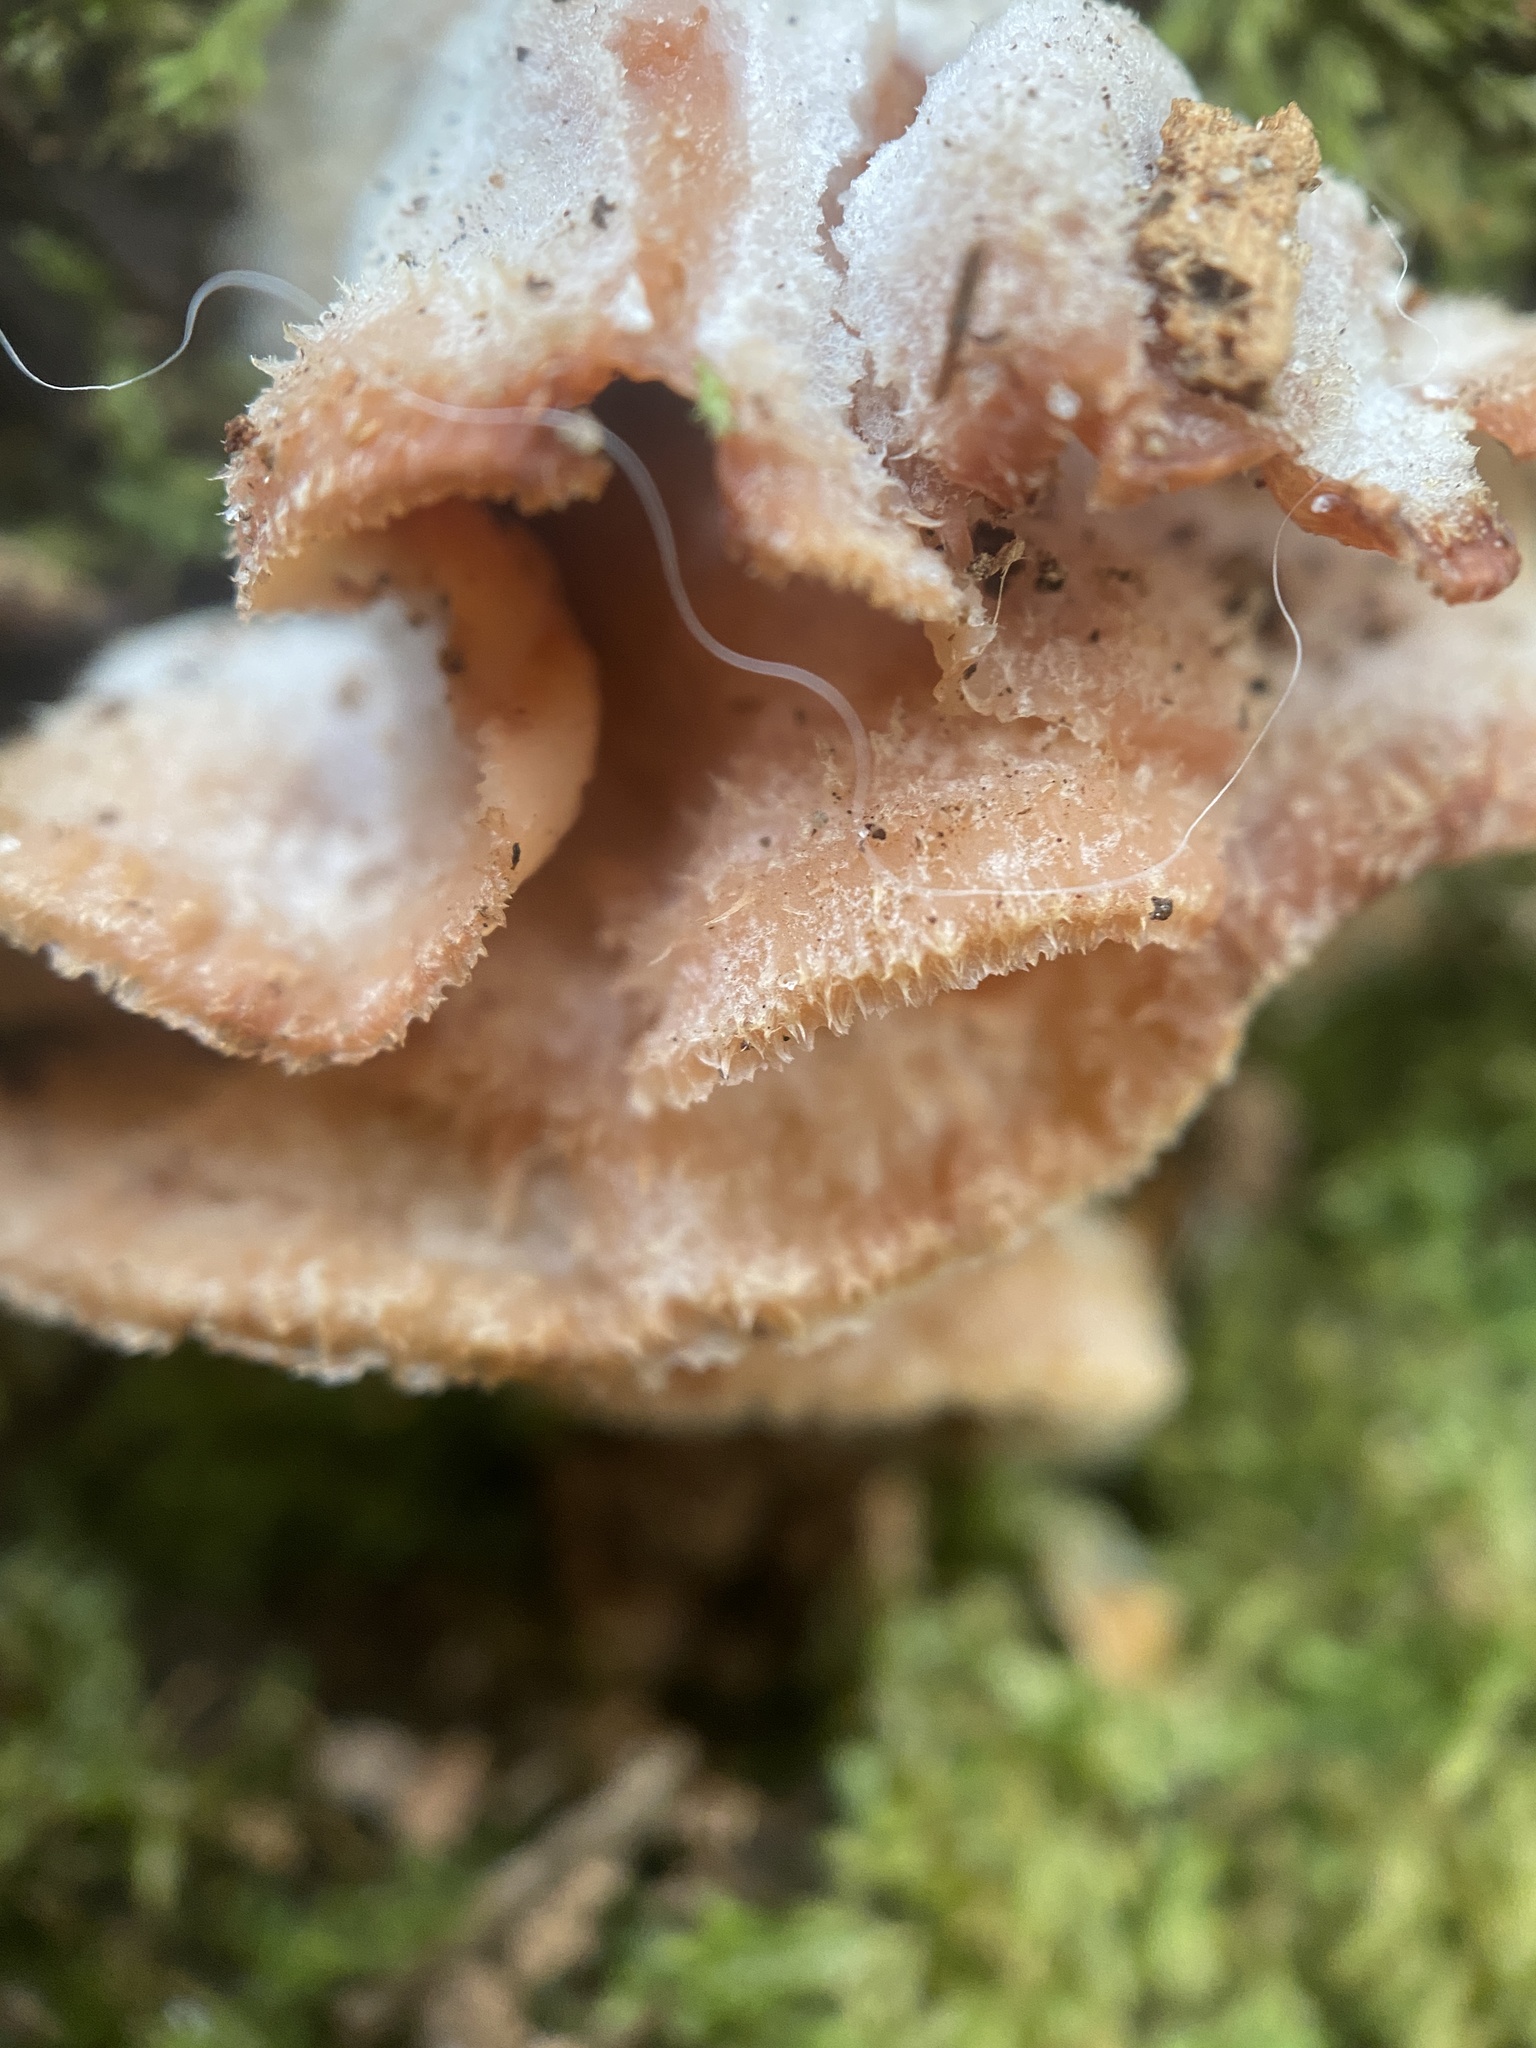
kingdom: Fungi
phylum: Basidiomycota
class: Agaricomycetes
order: Polyporales
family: Meruliaceae
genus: Phlebia
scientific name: Phlebia tremellosa
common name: Jelly rot
